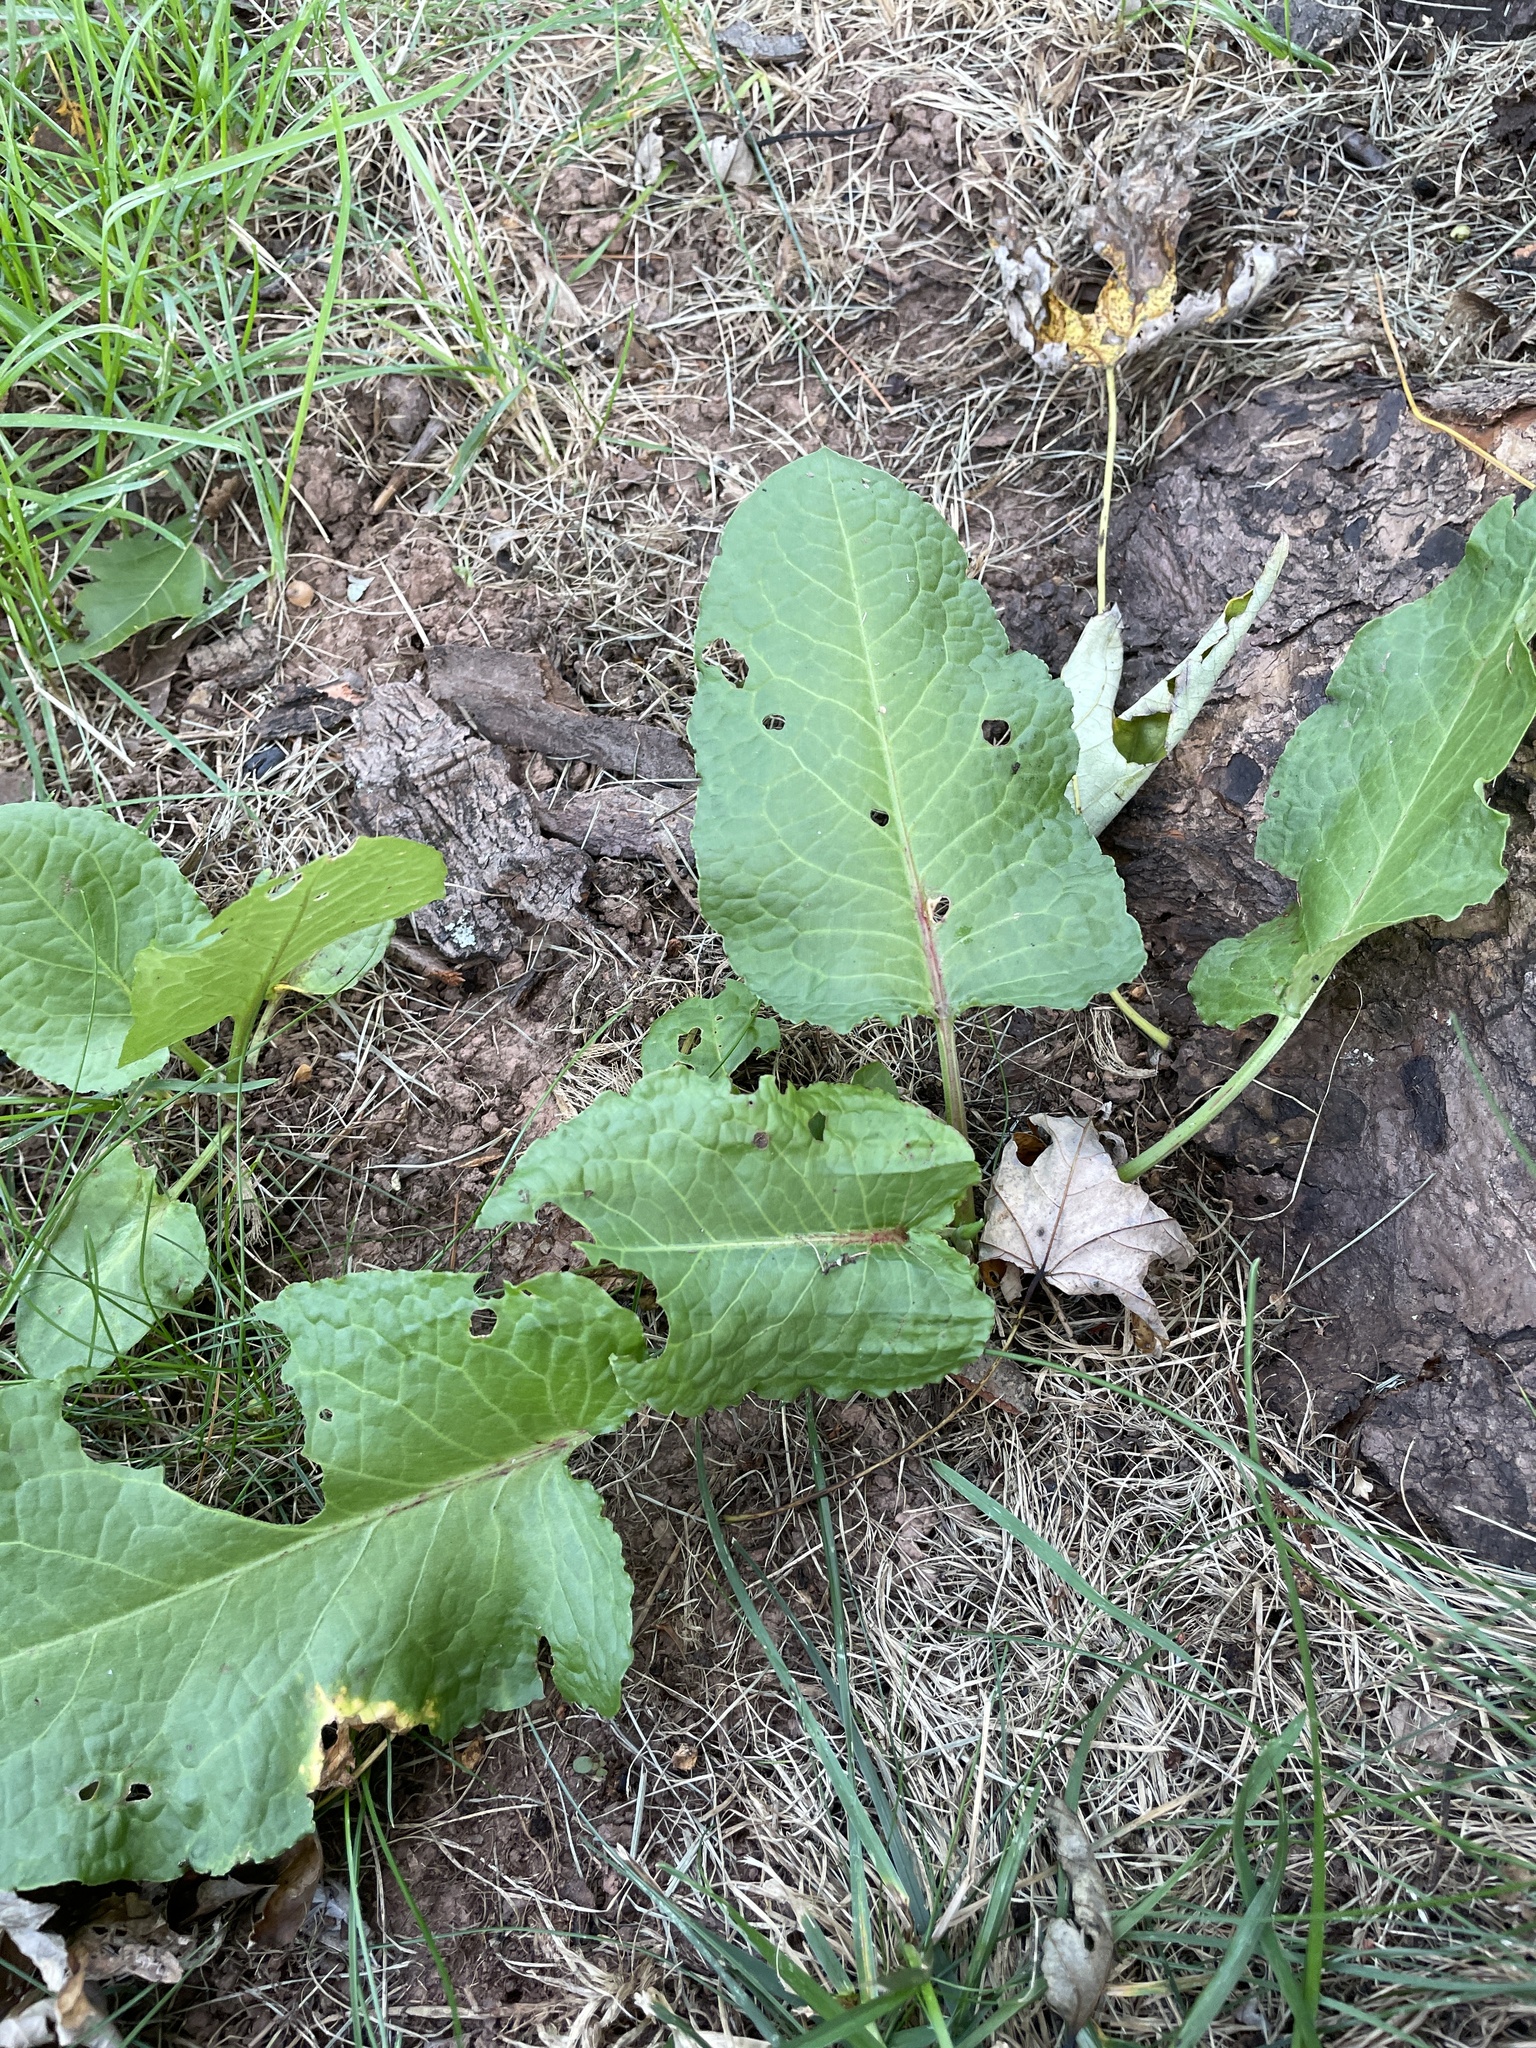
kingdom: Plantae
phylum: Tracheophyta
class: Magnoliopsida
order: Caryophyllales
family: Polygonaceae
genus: Rumex
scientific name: Rumex obtusifolius
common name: Bitter dock
